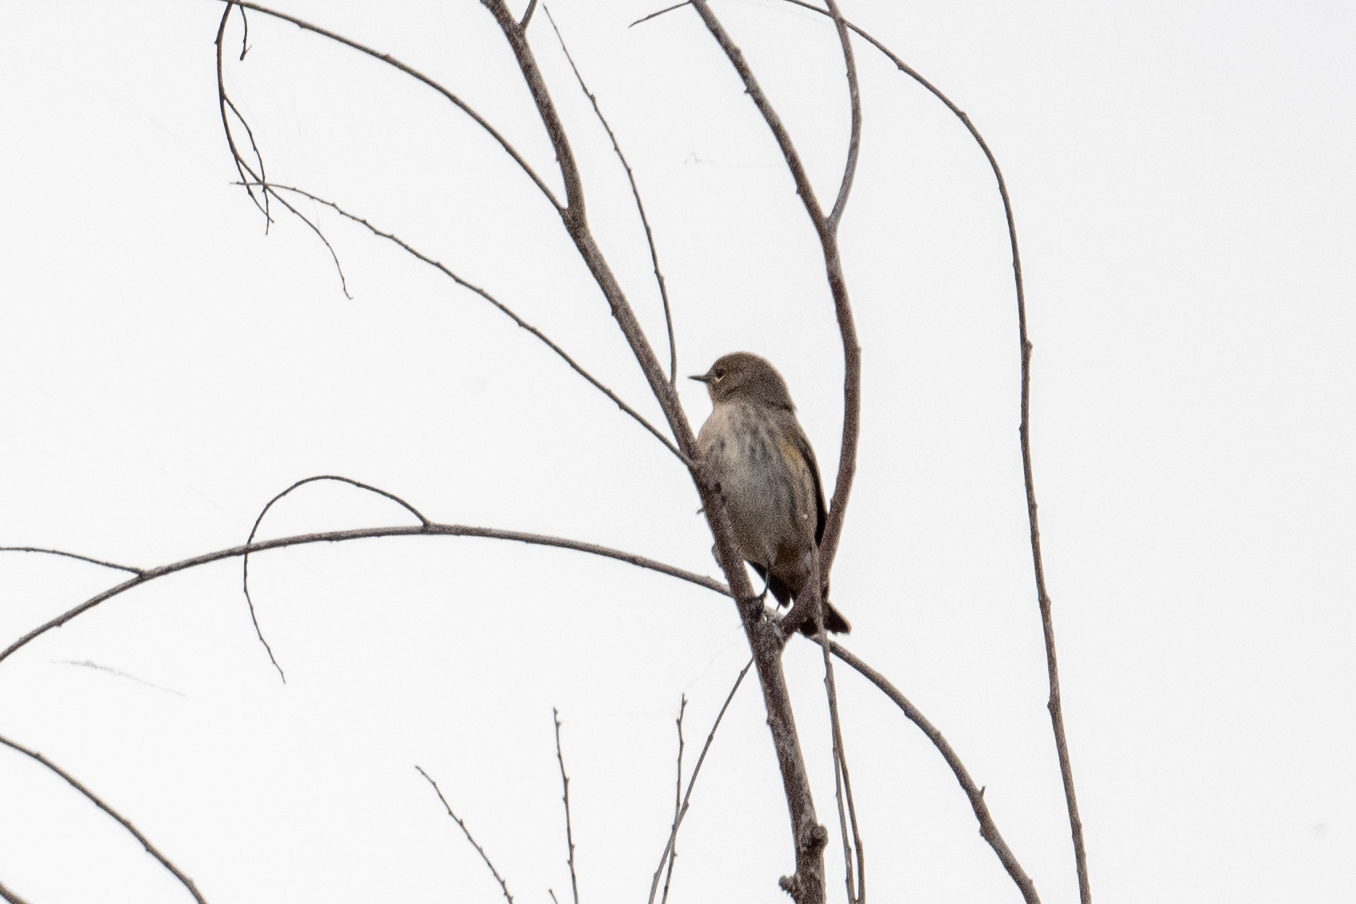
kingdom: Animalia
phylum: Chordata
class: Aves
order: Passeriformes
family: Parulidae
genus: Setophaga
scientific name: Setophaga coronata
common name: Myrtle warbler
